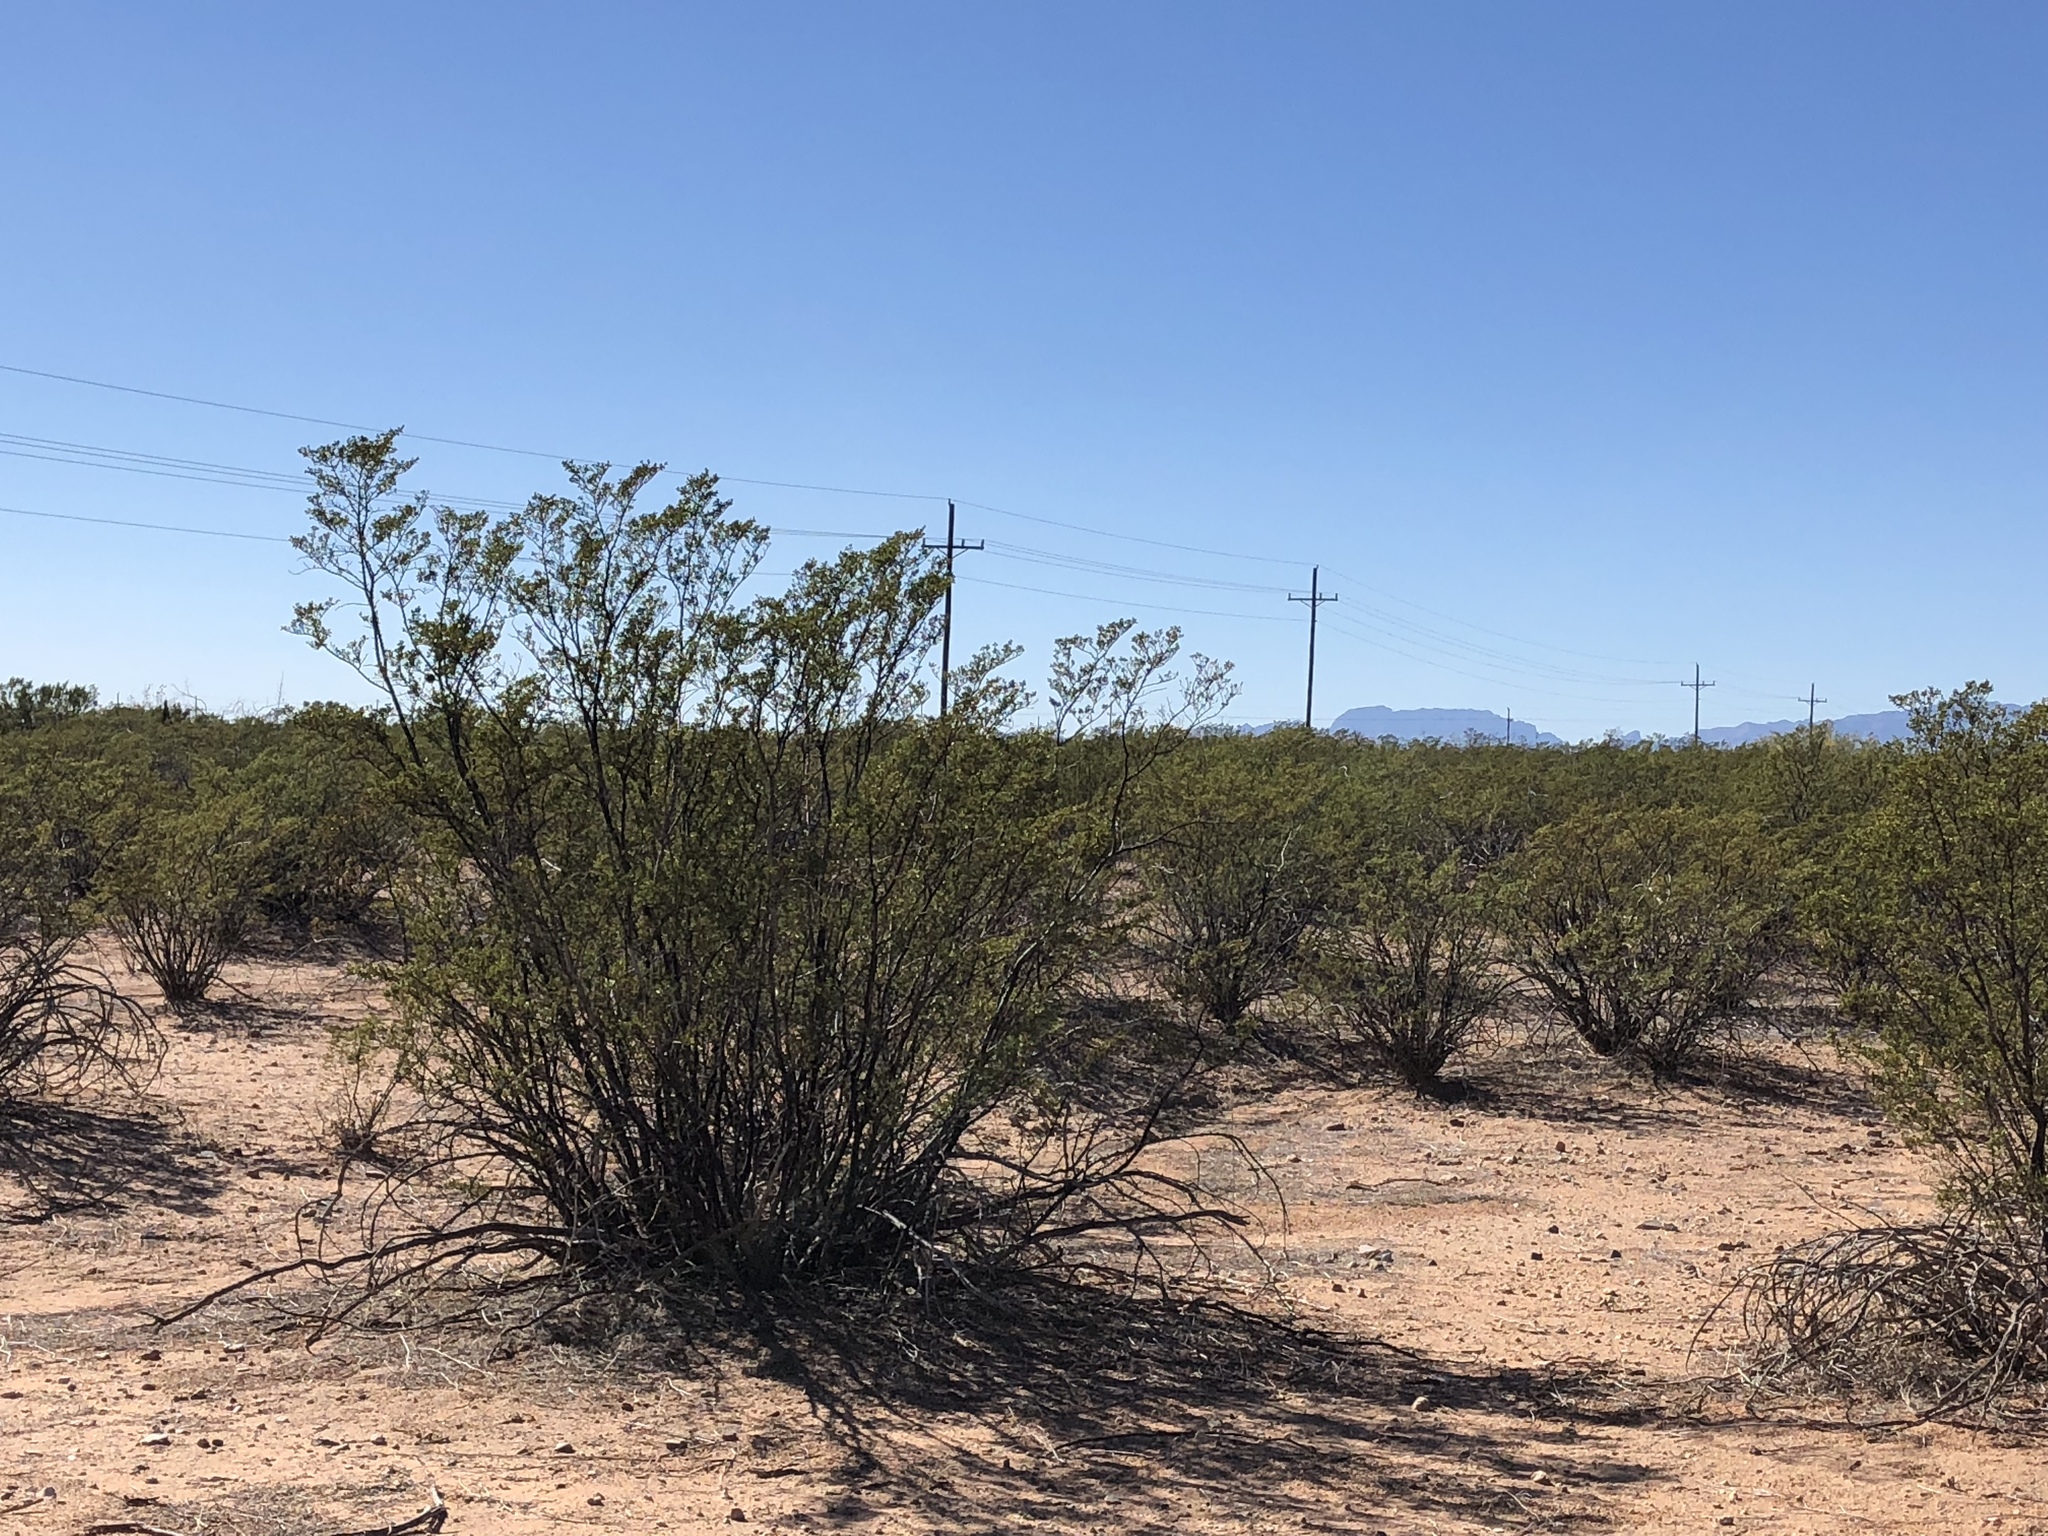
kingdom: Plantae
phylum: Tracheophyta
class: Magnoliopsida
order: Zygophyllales
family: Zygophyllaceae
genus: Larrea
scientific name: Larrea tridentata
